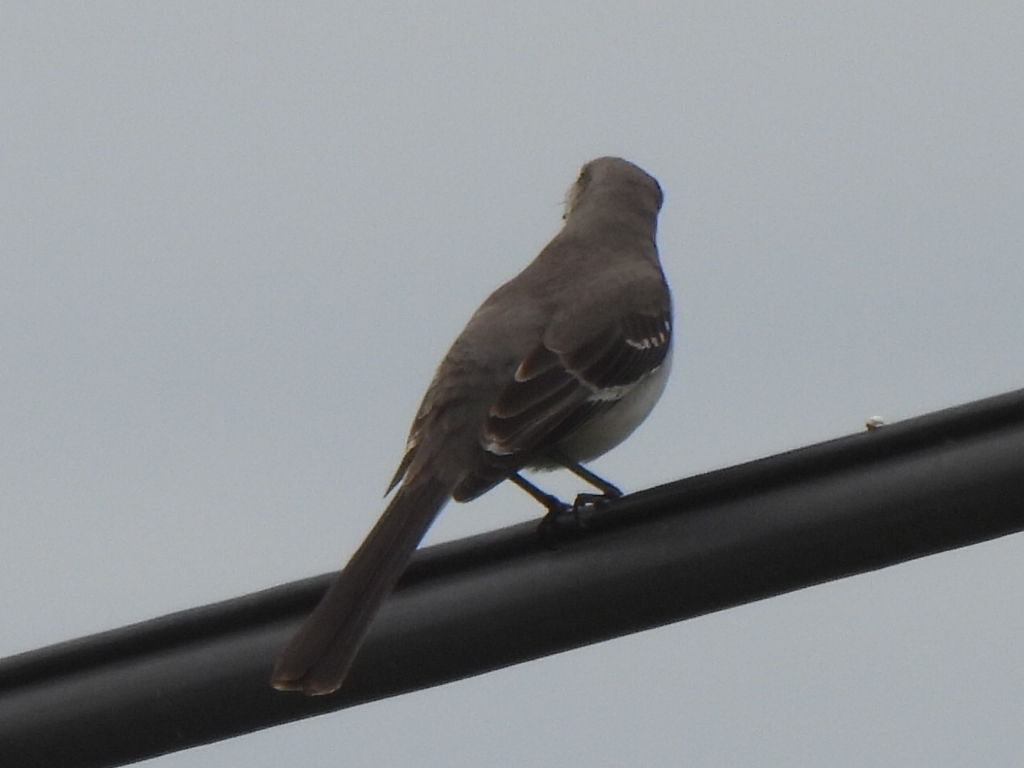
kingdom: Animalia
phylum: Chordata
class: Aves
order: Passeriformes
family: Mimidae
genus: Mimus
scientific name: Mimus polyglottos
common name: Northern mockingbird
